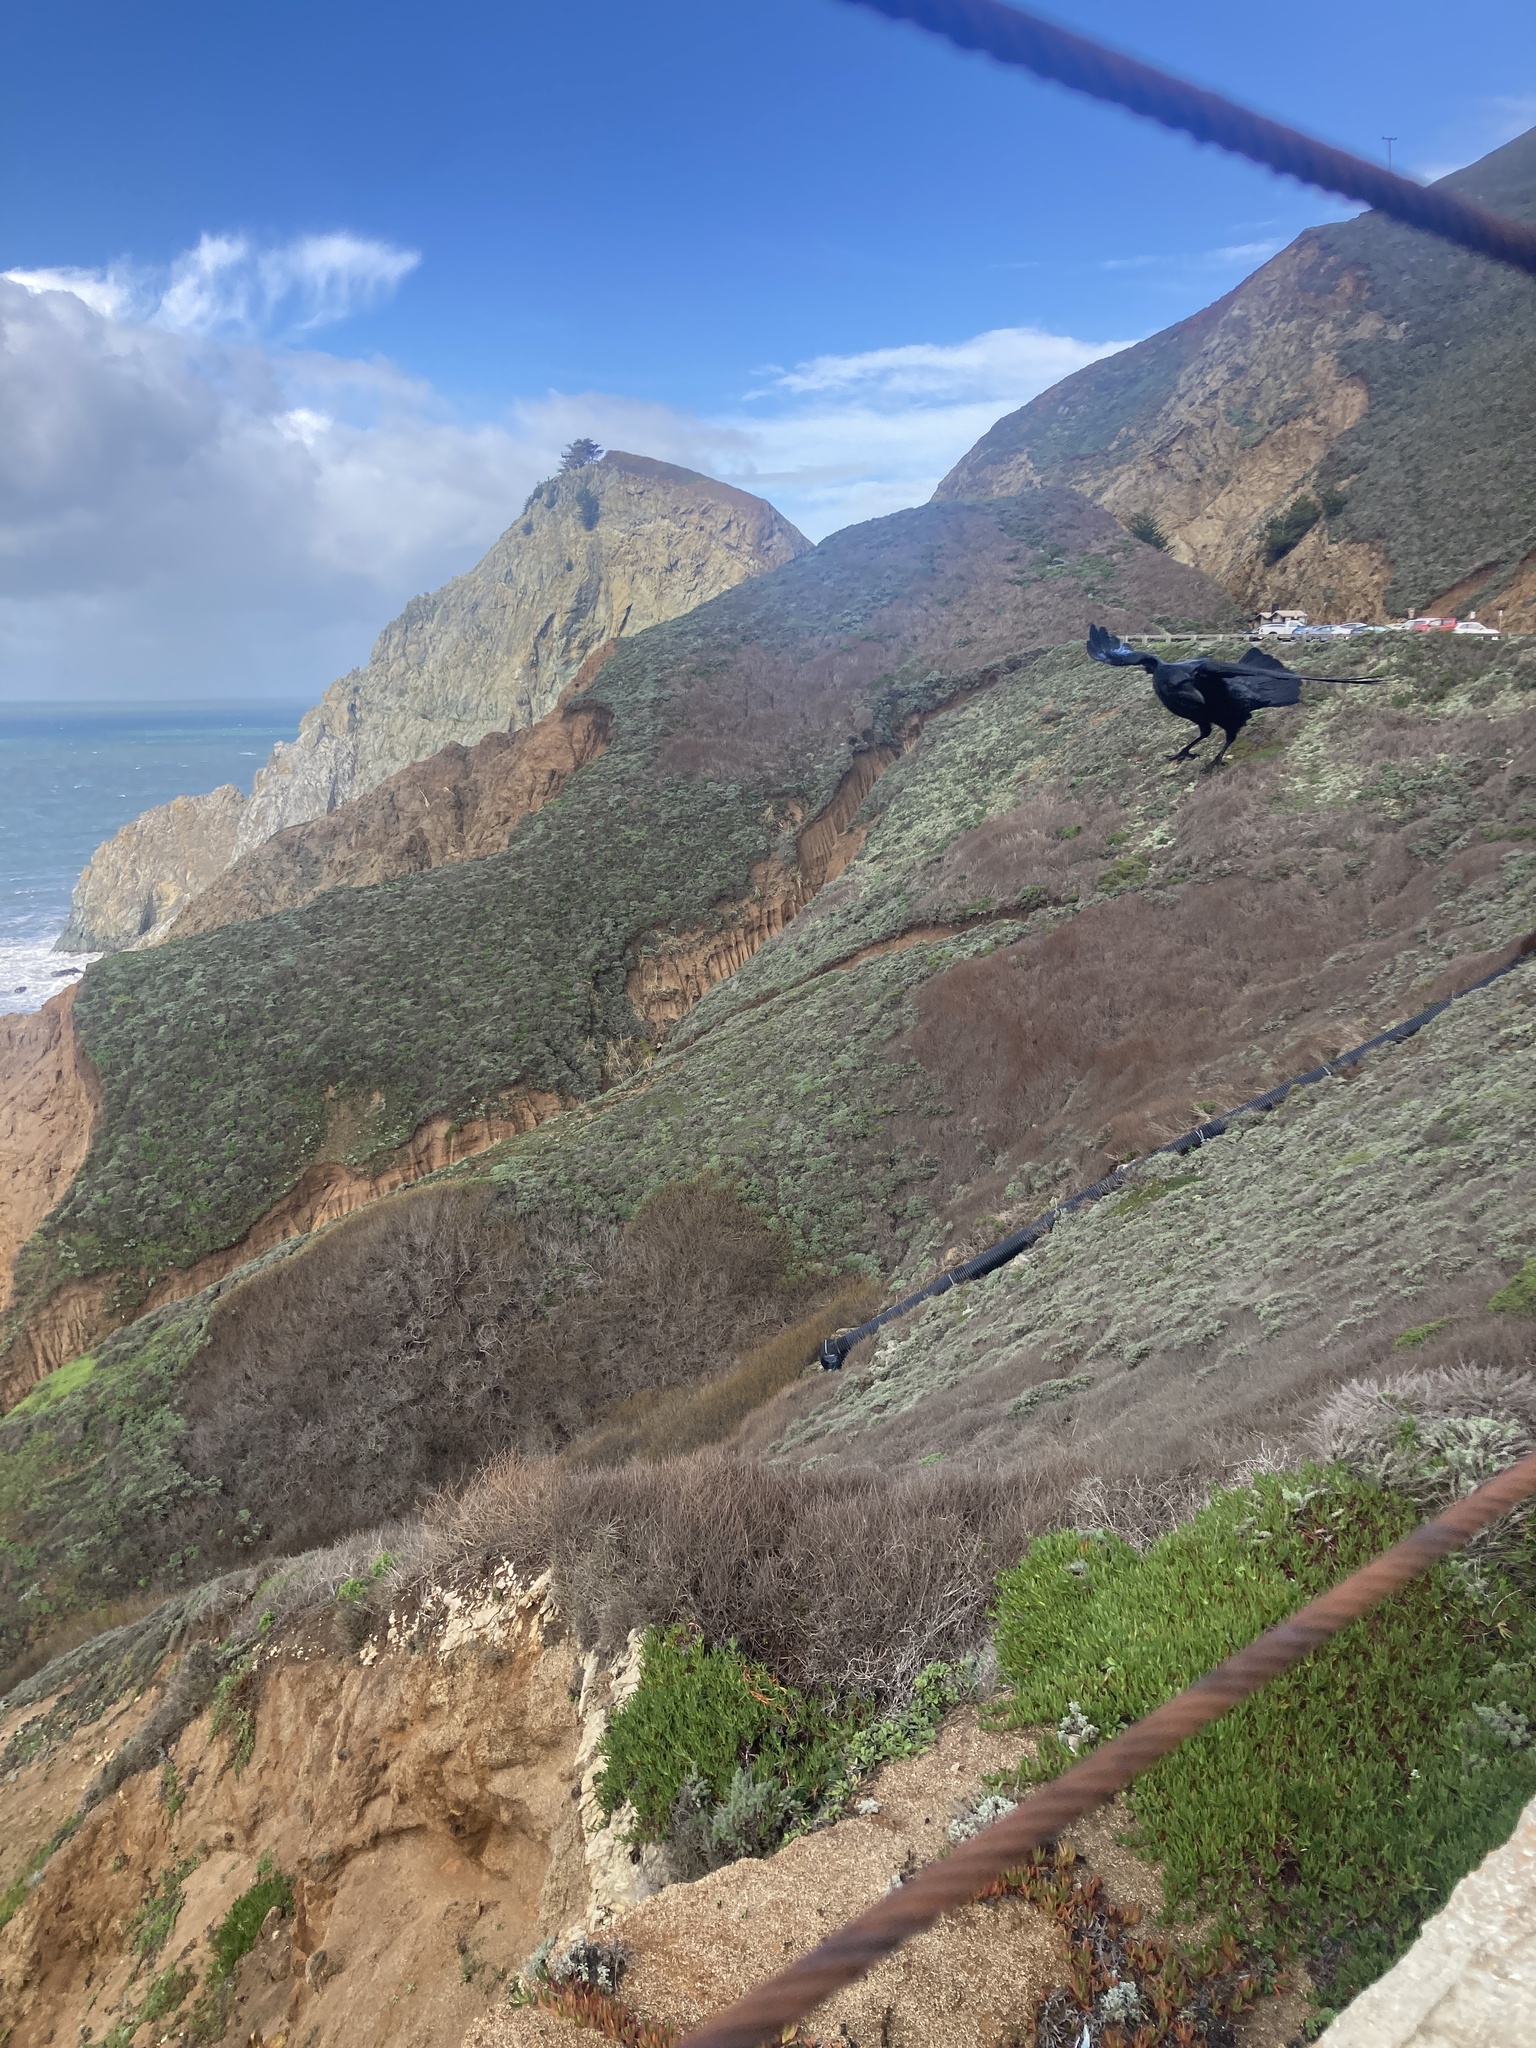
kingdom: Animalia
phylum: Chordata
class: Aves
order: Passeriformes
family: Corvidae
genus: Corvus
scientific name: Corvus corax
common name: Common raven
